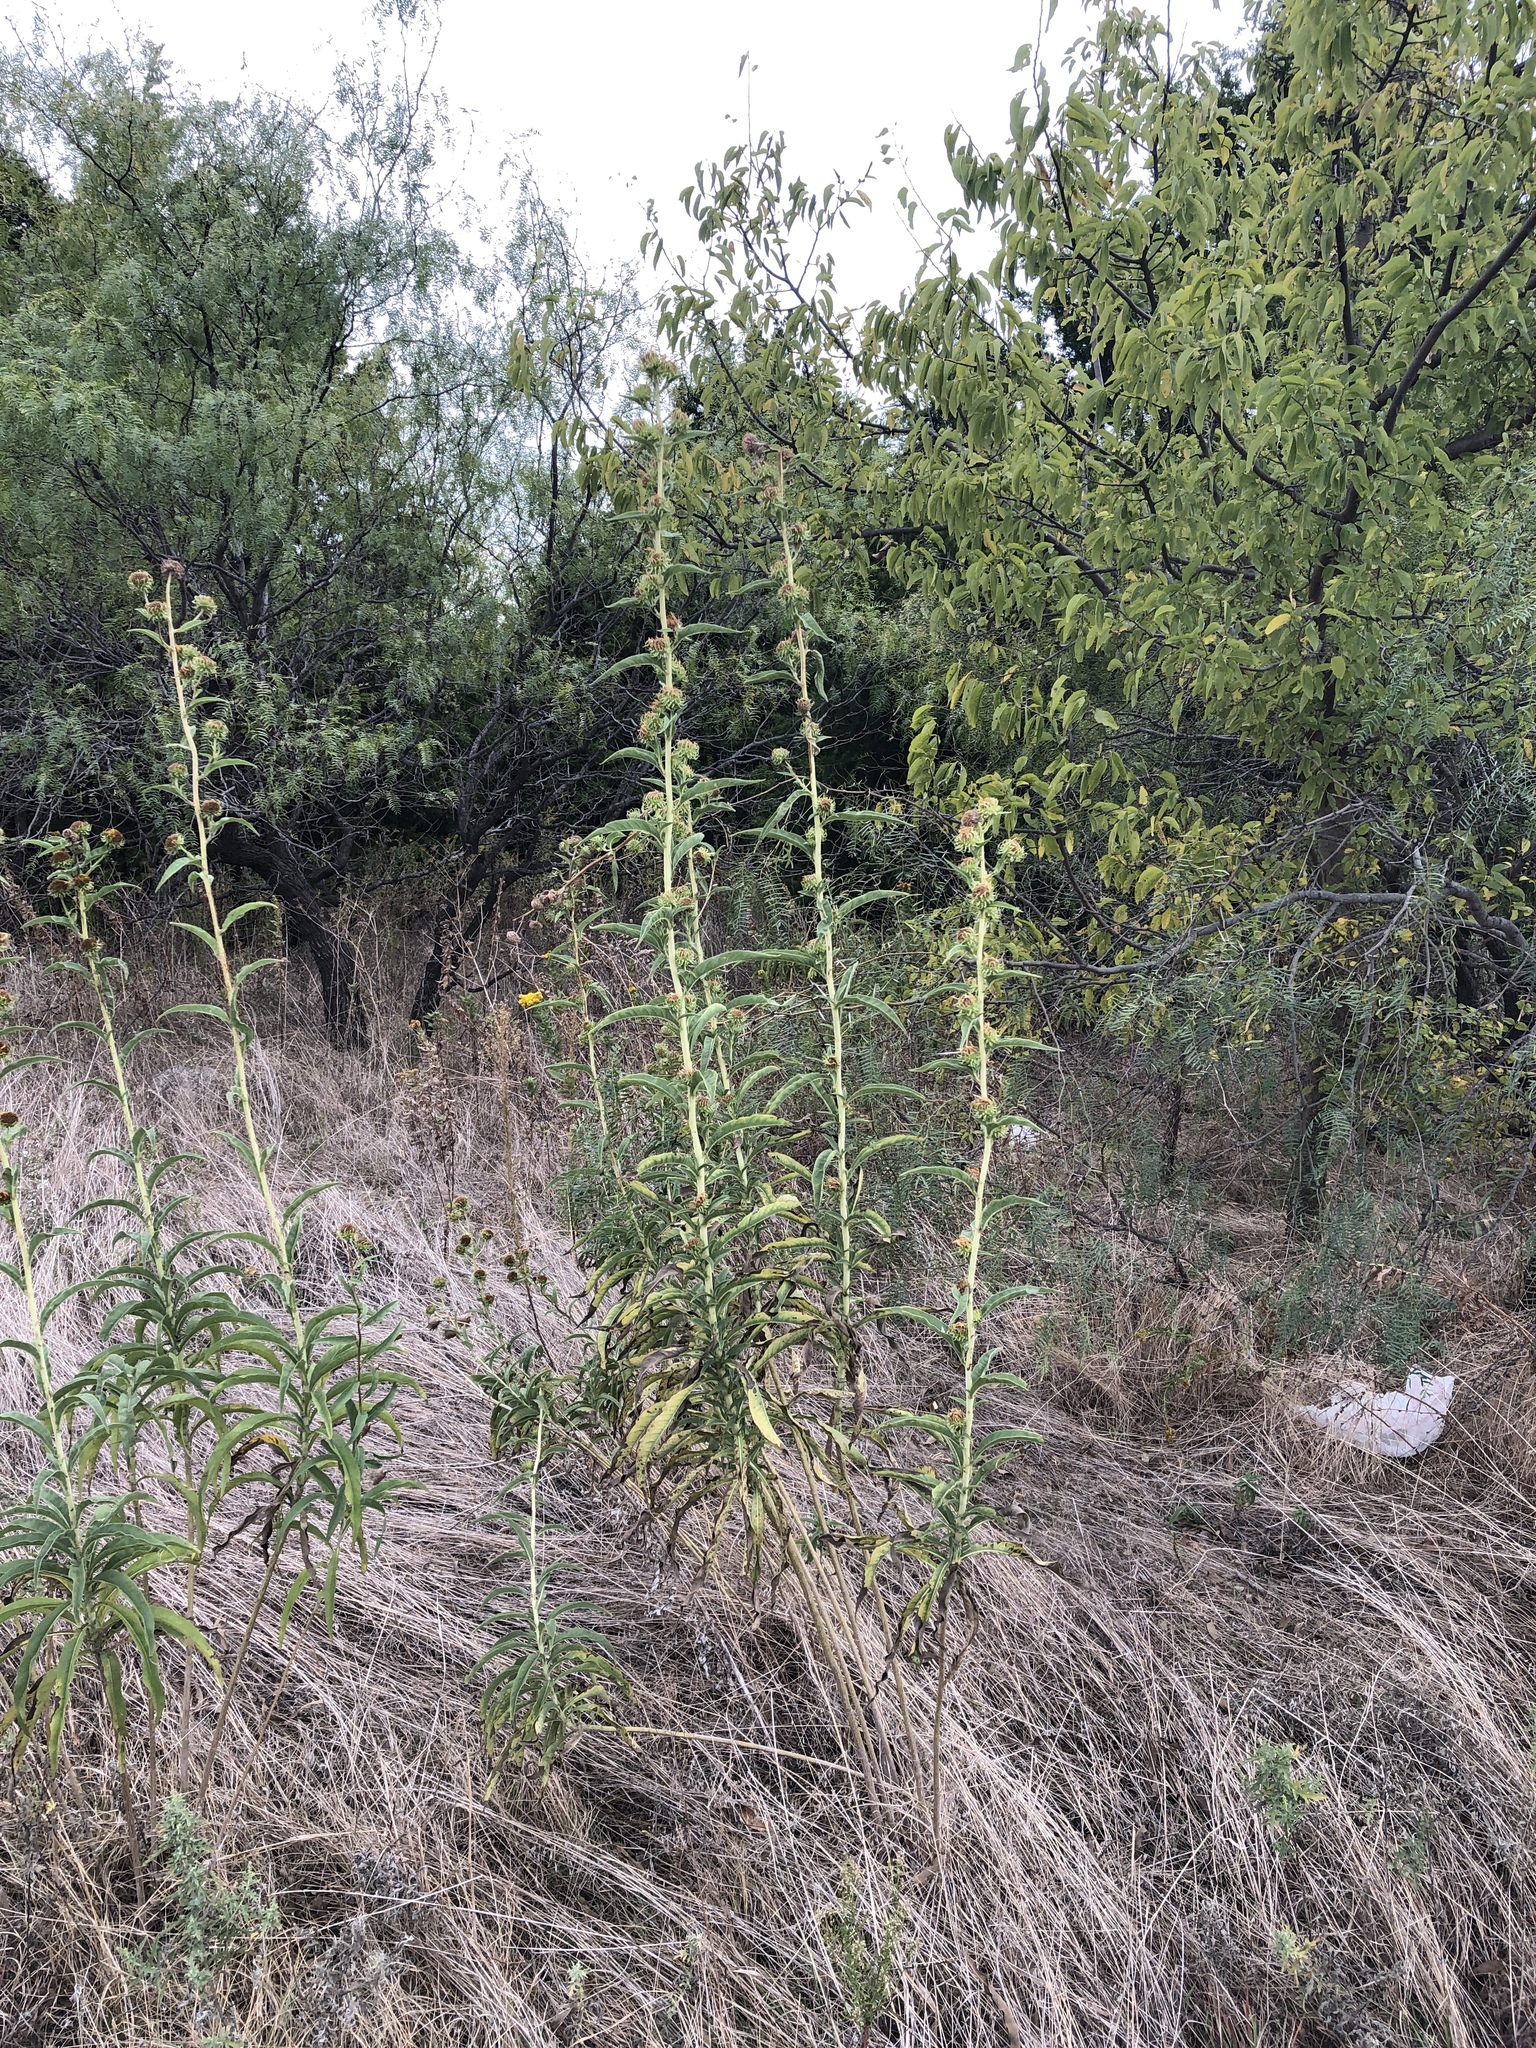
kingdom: Plantae
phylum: Tracheophyta
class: Magnoliopsida
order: Asterales
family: Asteraceae
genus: Helianthus
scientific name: Helianthus maximiliani
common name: Maximilian's sunflower
